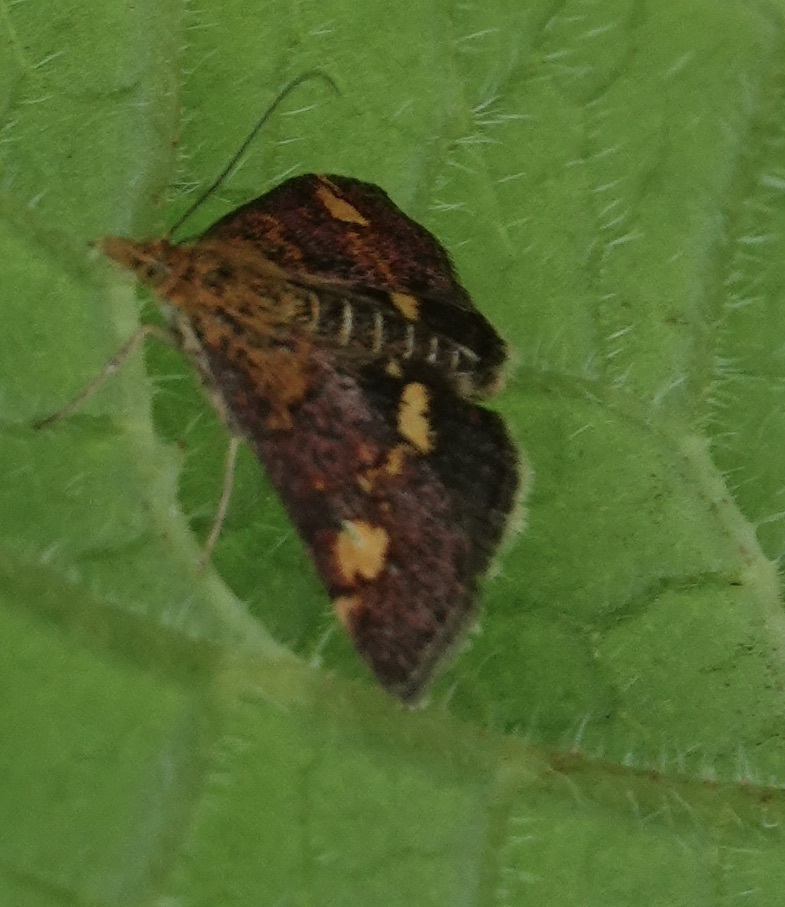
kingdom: Animalia
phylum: Arthropoda
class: Insecta
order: Lepidoptera
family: Crambidae
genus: Pyrausta
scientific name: Pyrausta aurata
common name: Small purple & gold
